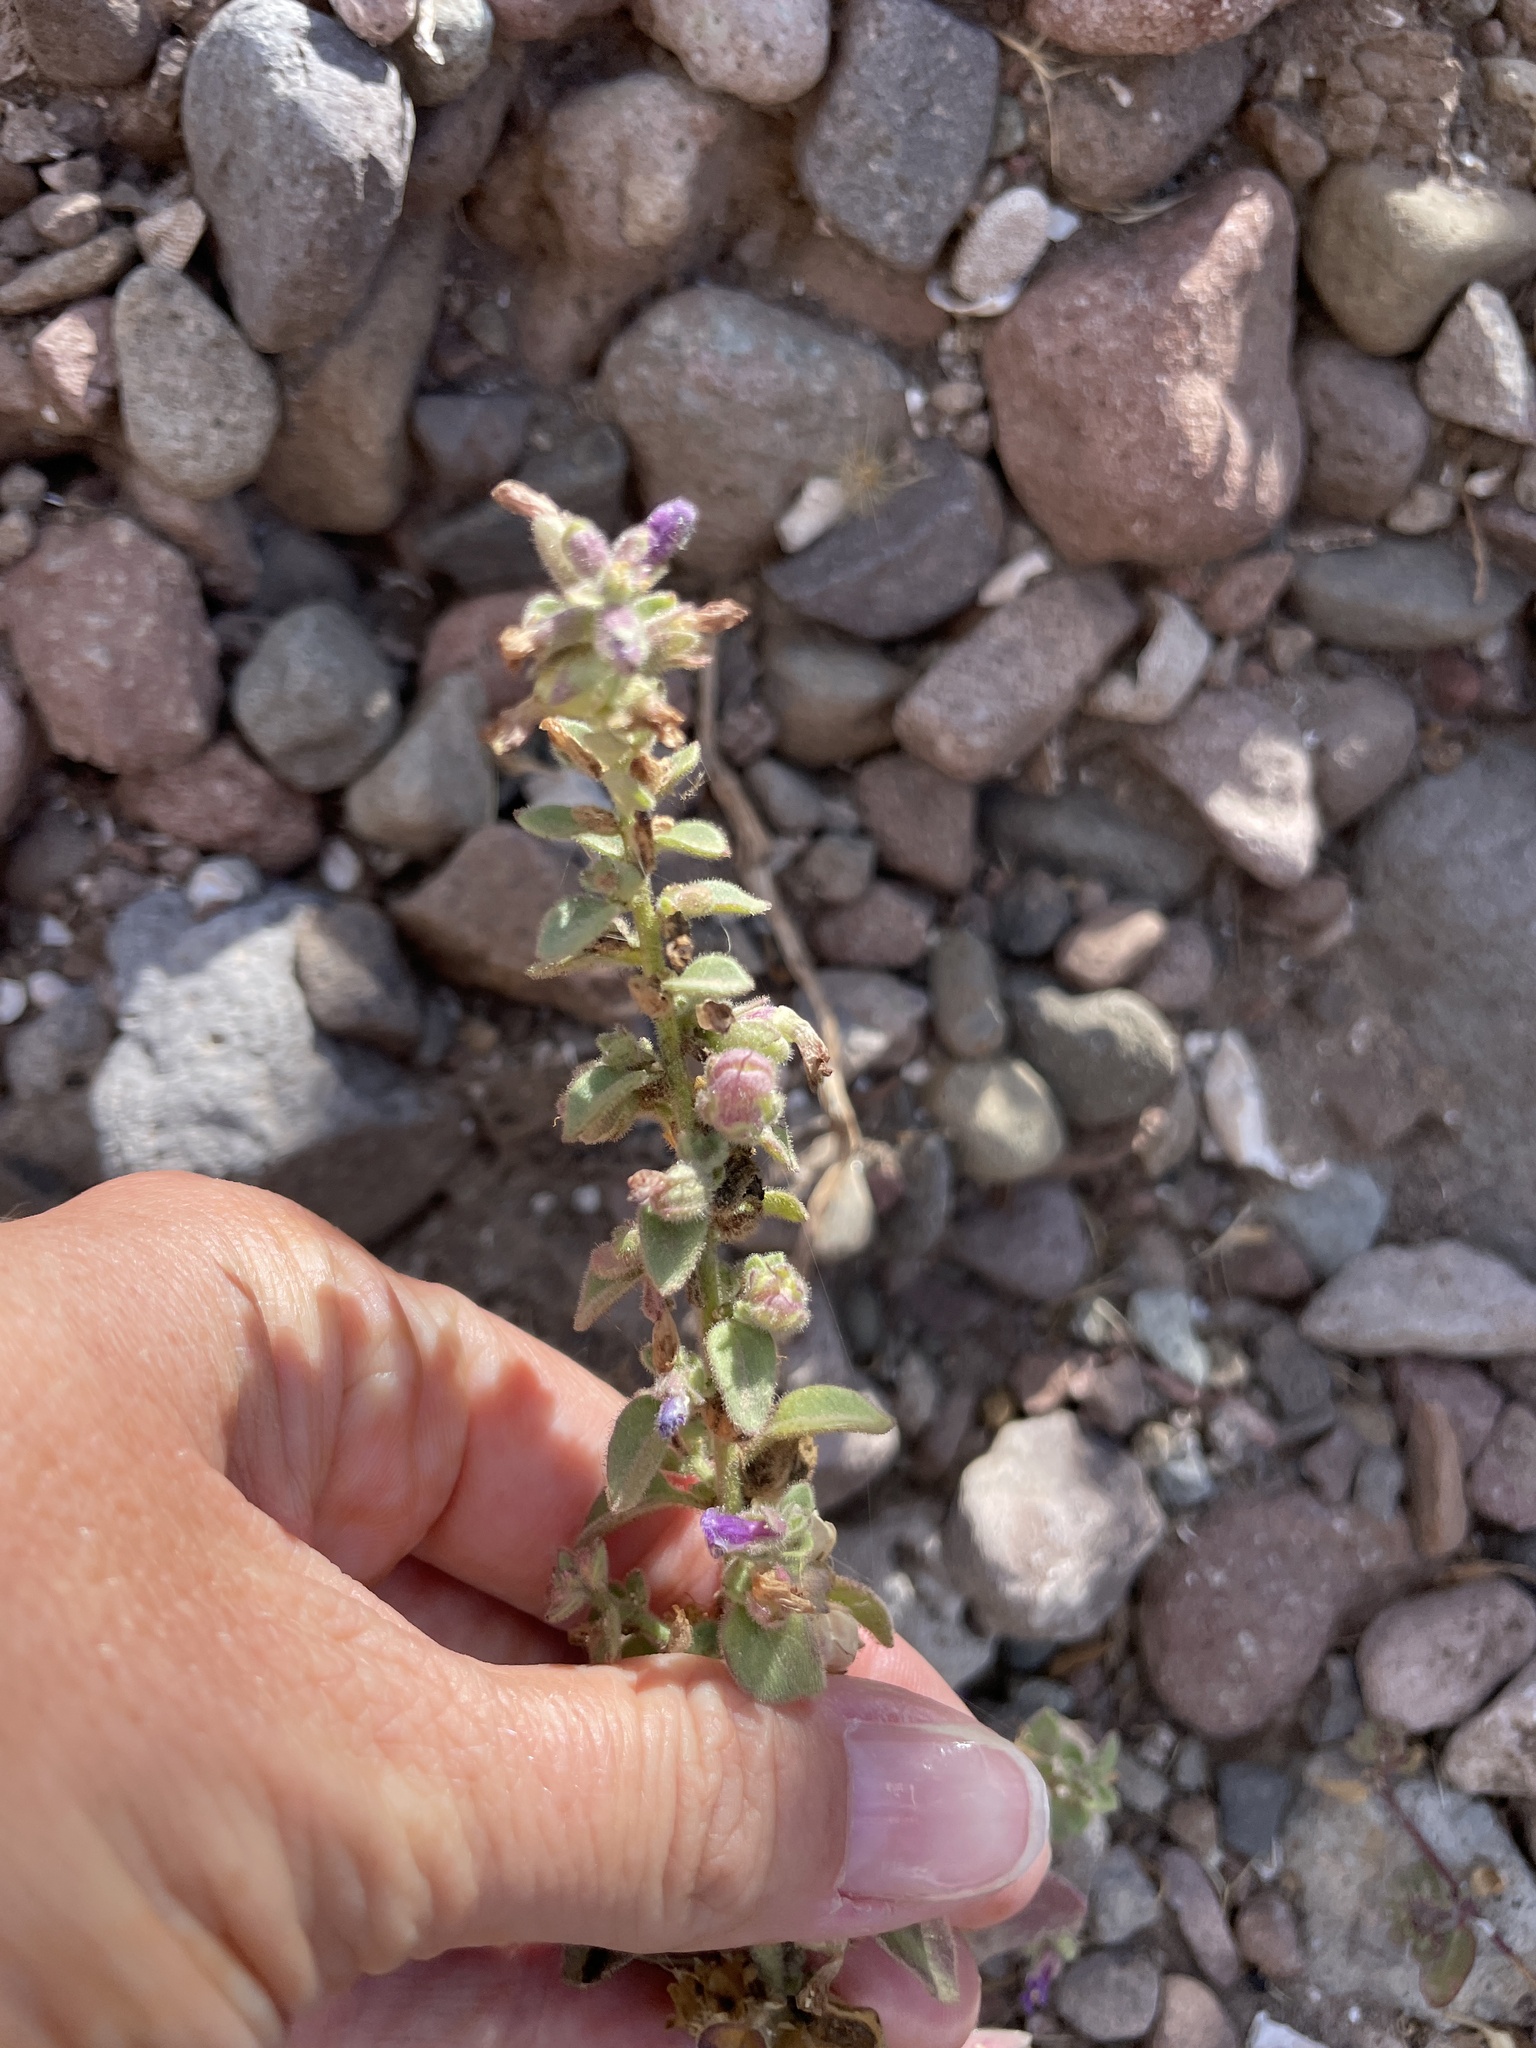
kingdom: Plantae
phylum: Tracheophyta
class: Magnoliopsida
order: Lamiales
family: Plantaginaceae
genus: Pseudorontium
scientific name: Pseudorontium cyathiferum
